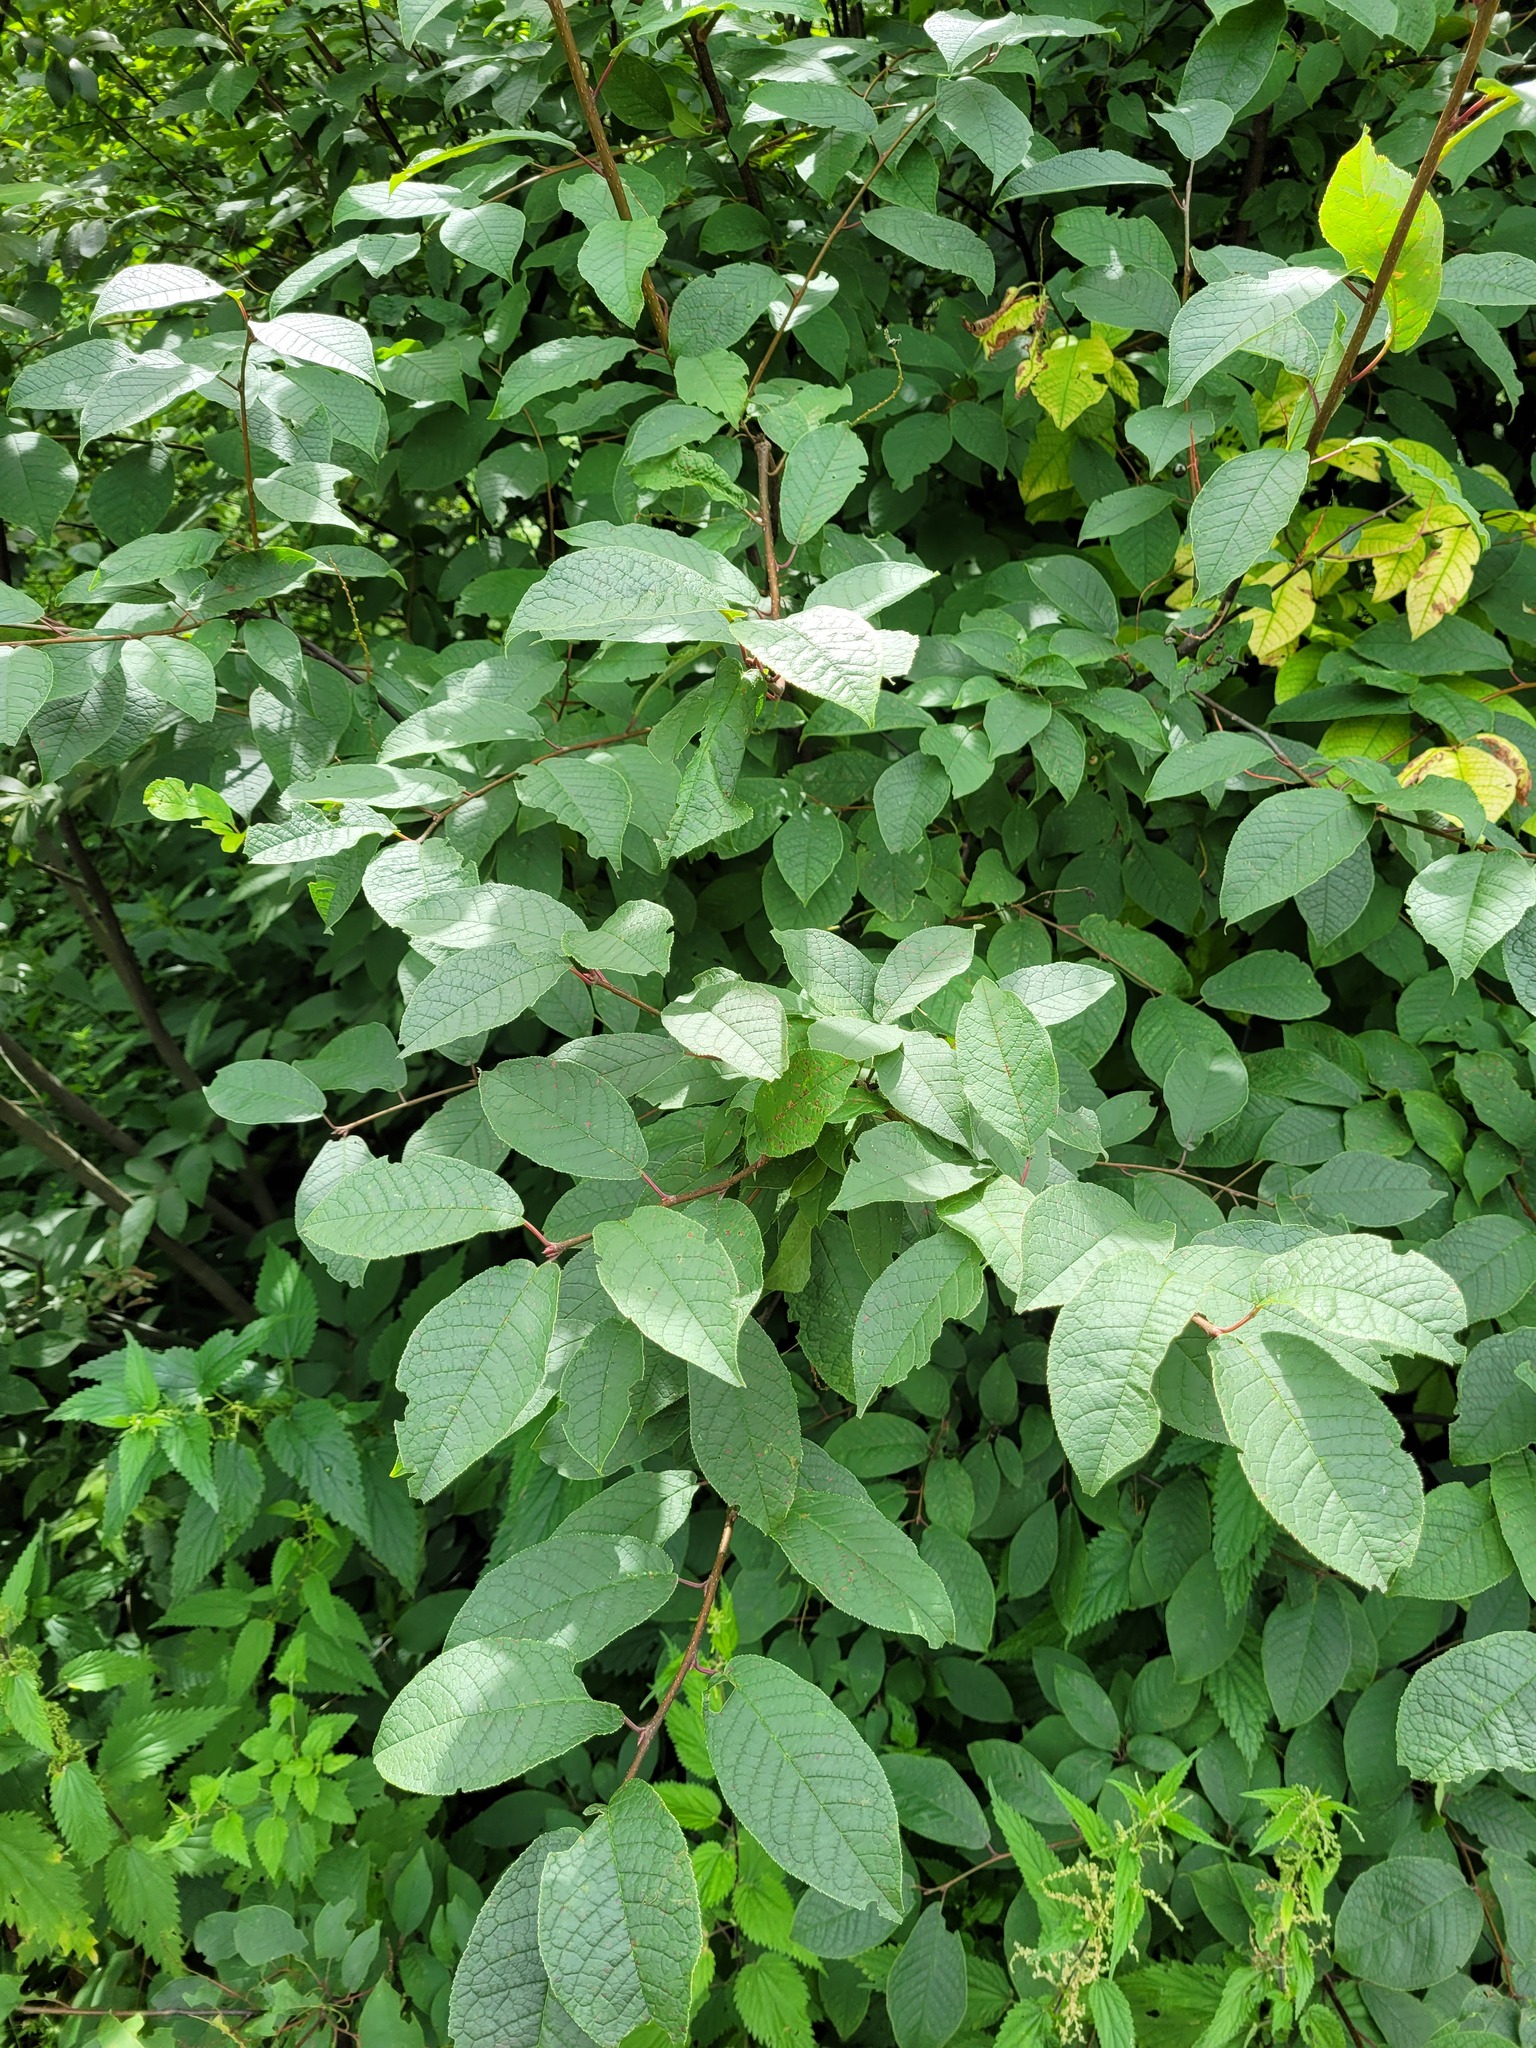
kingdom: Plantae
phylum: Tracheophyta
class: Magnoliopsida
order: Rosales
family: Rosaceae
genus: Prunus
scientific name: Prunus padus
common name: Bird cherry
